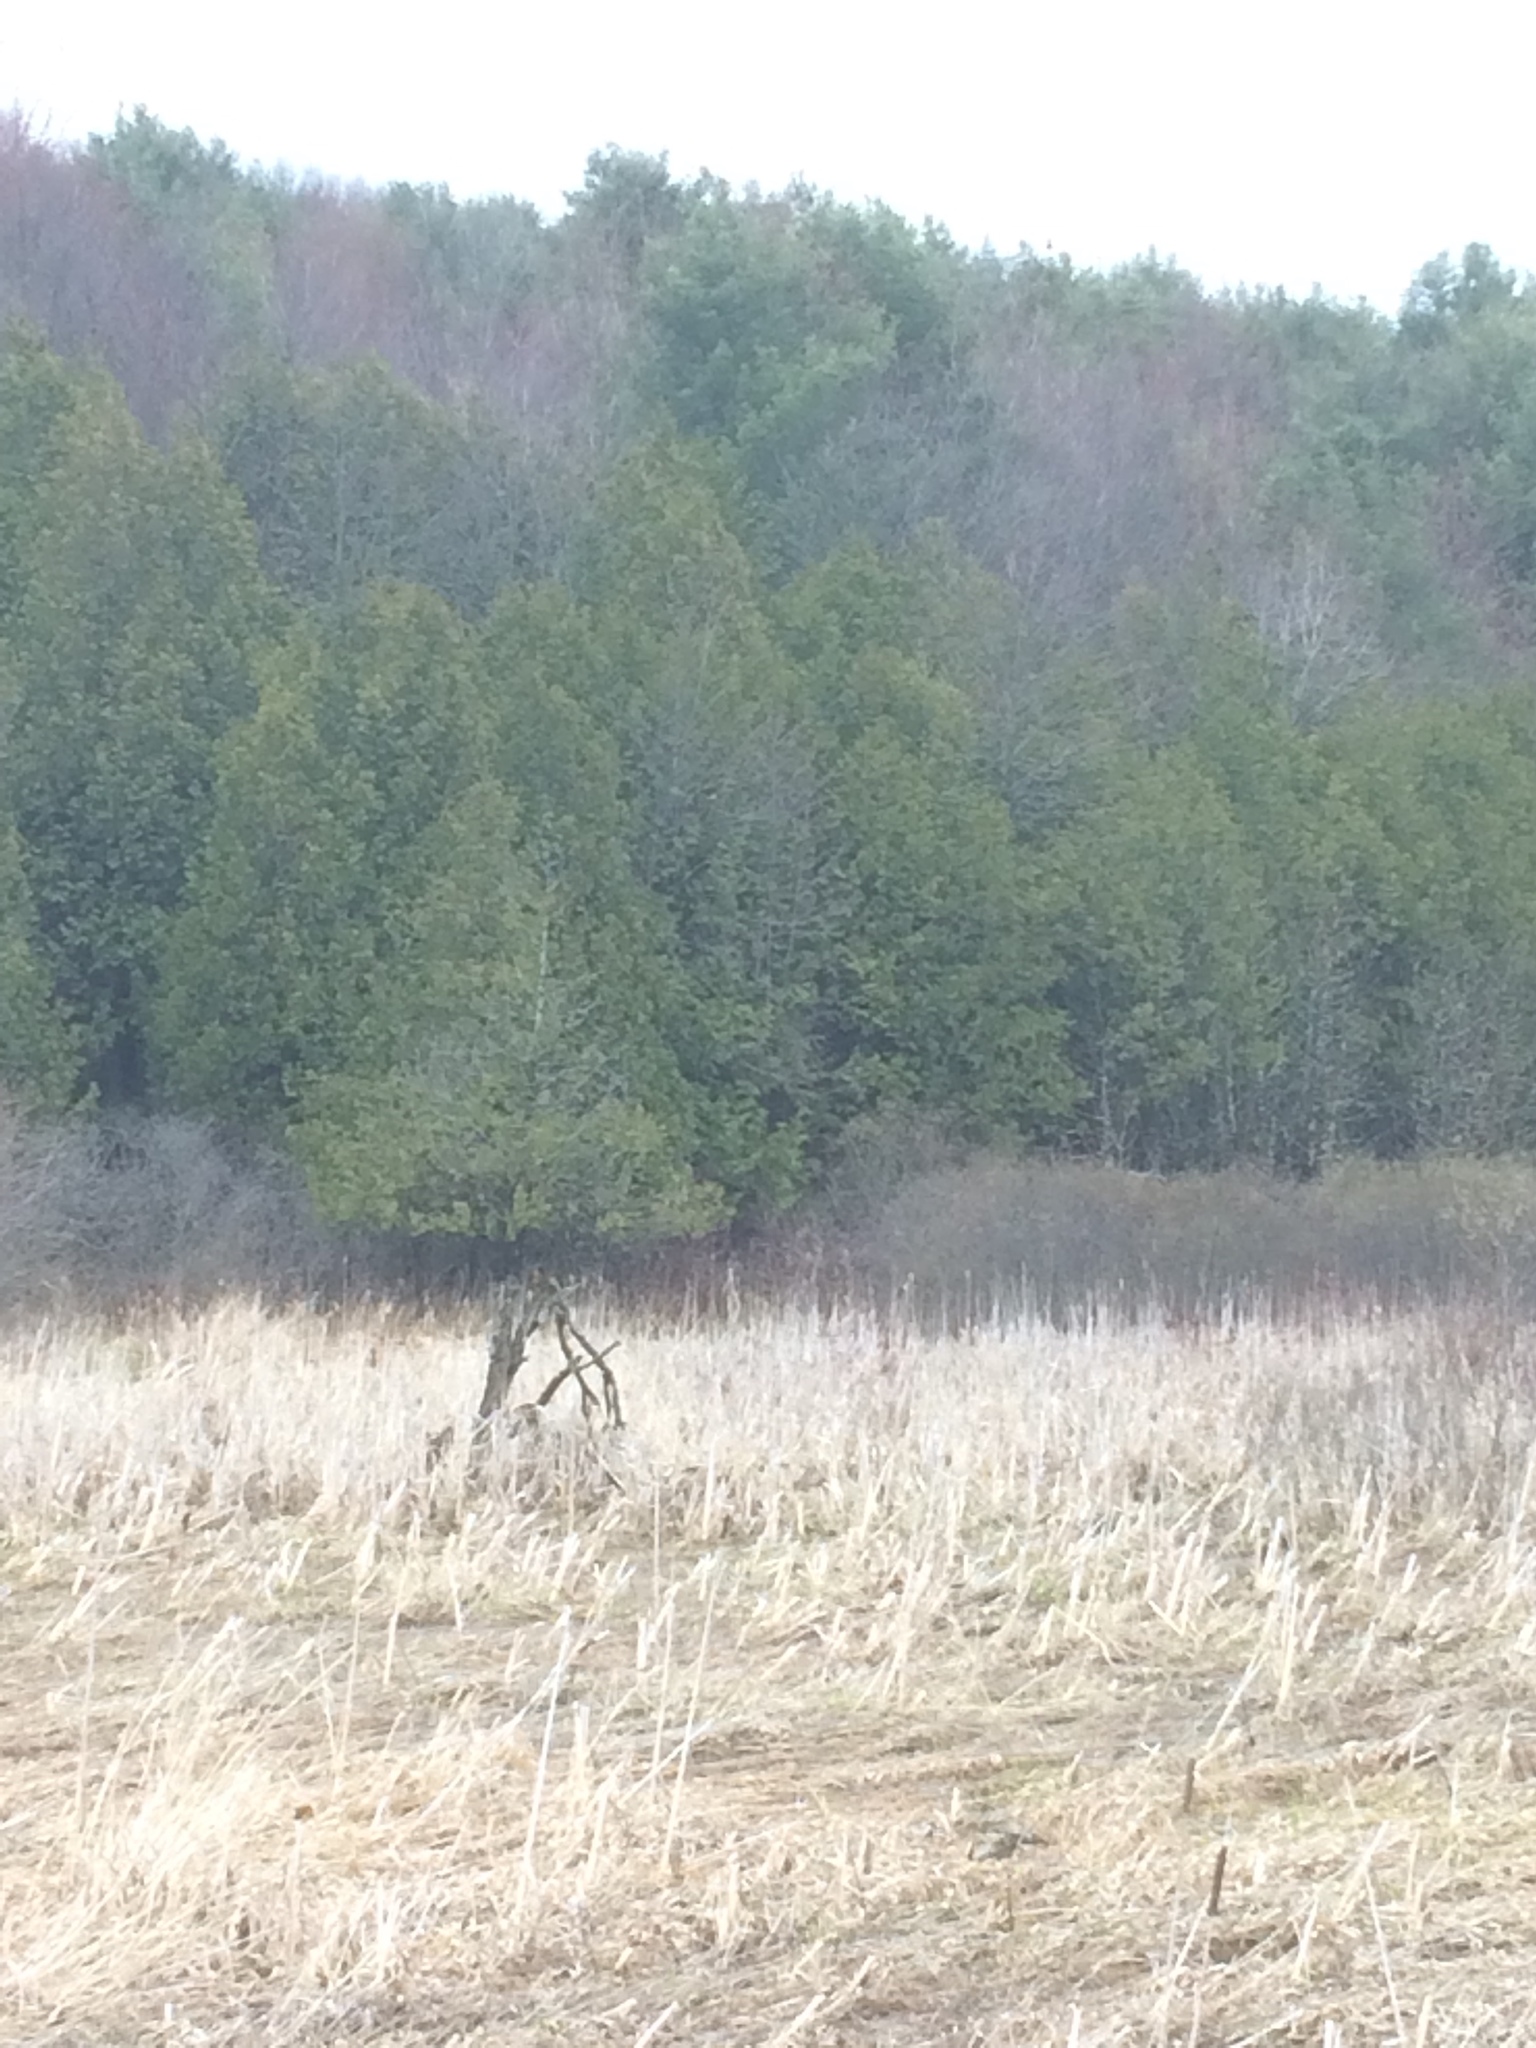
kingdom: Plantae
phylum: Tracheophyta
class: Pinopsida
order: Pinales
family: Cupressaceae
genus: Thuja
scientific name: Thuja occidentalis
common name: Northern white-cedar
